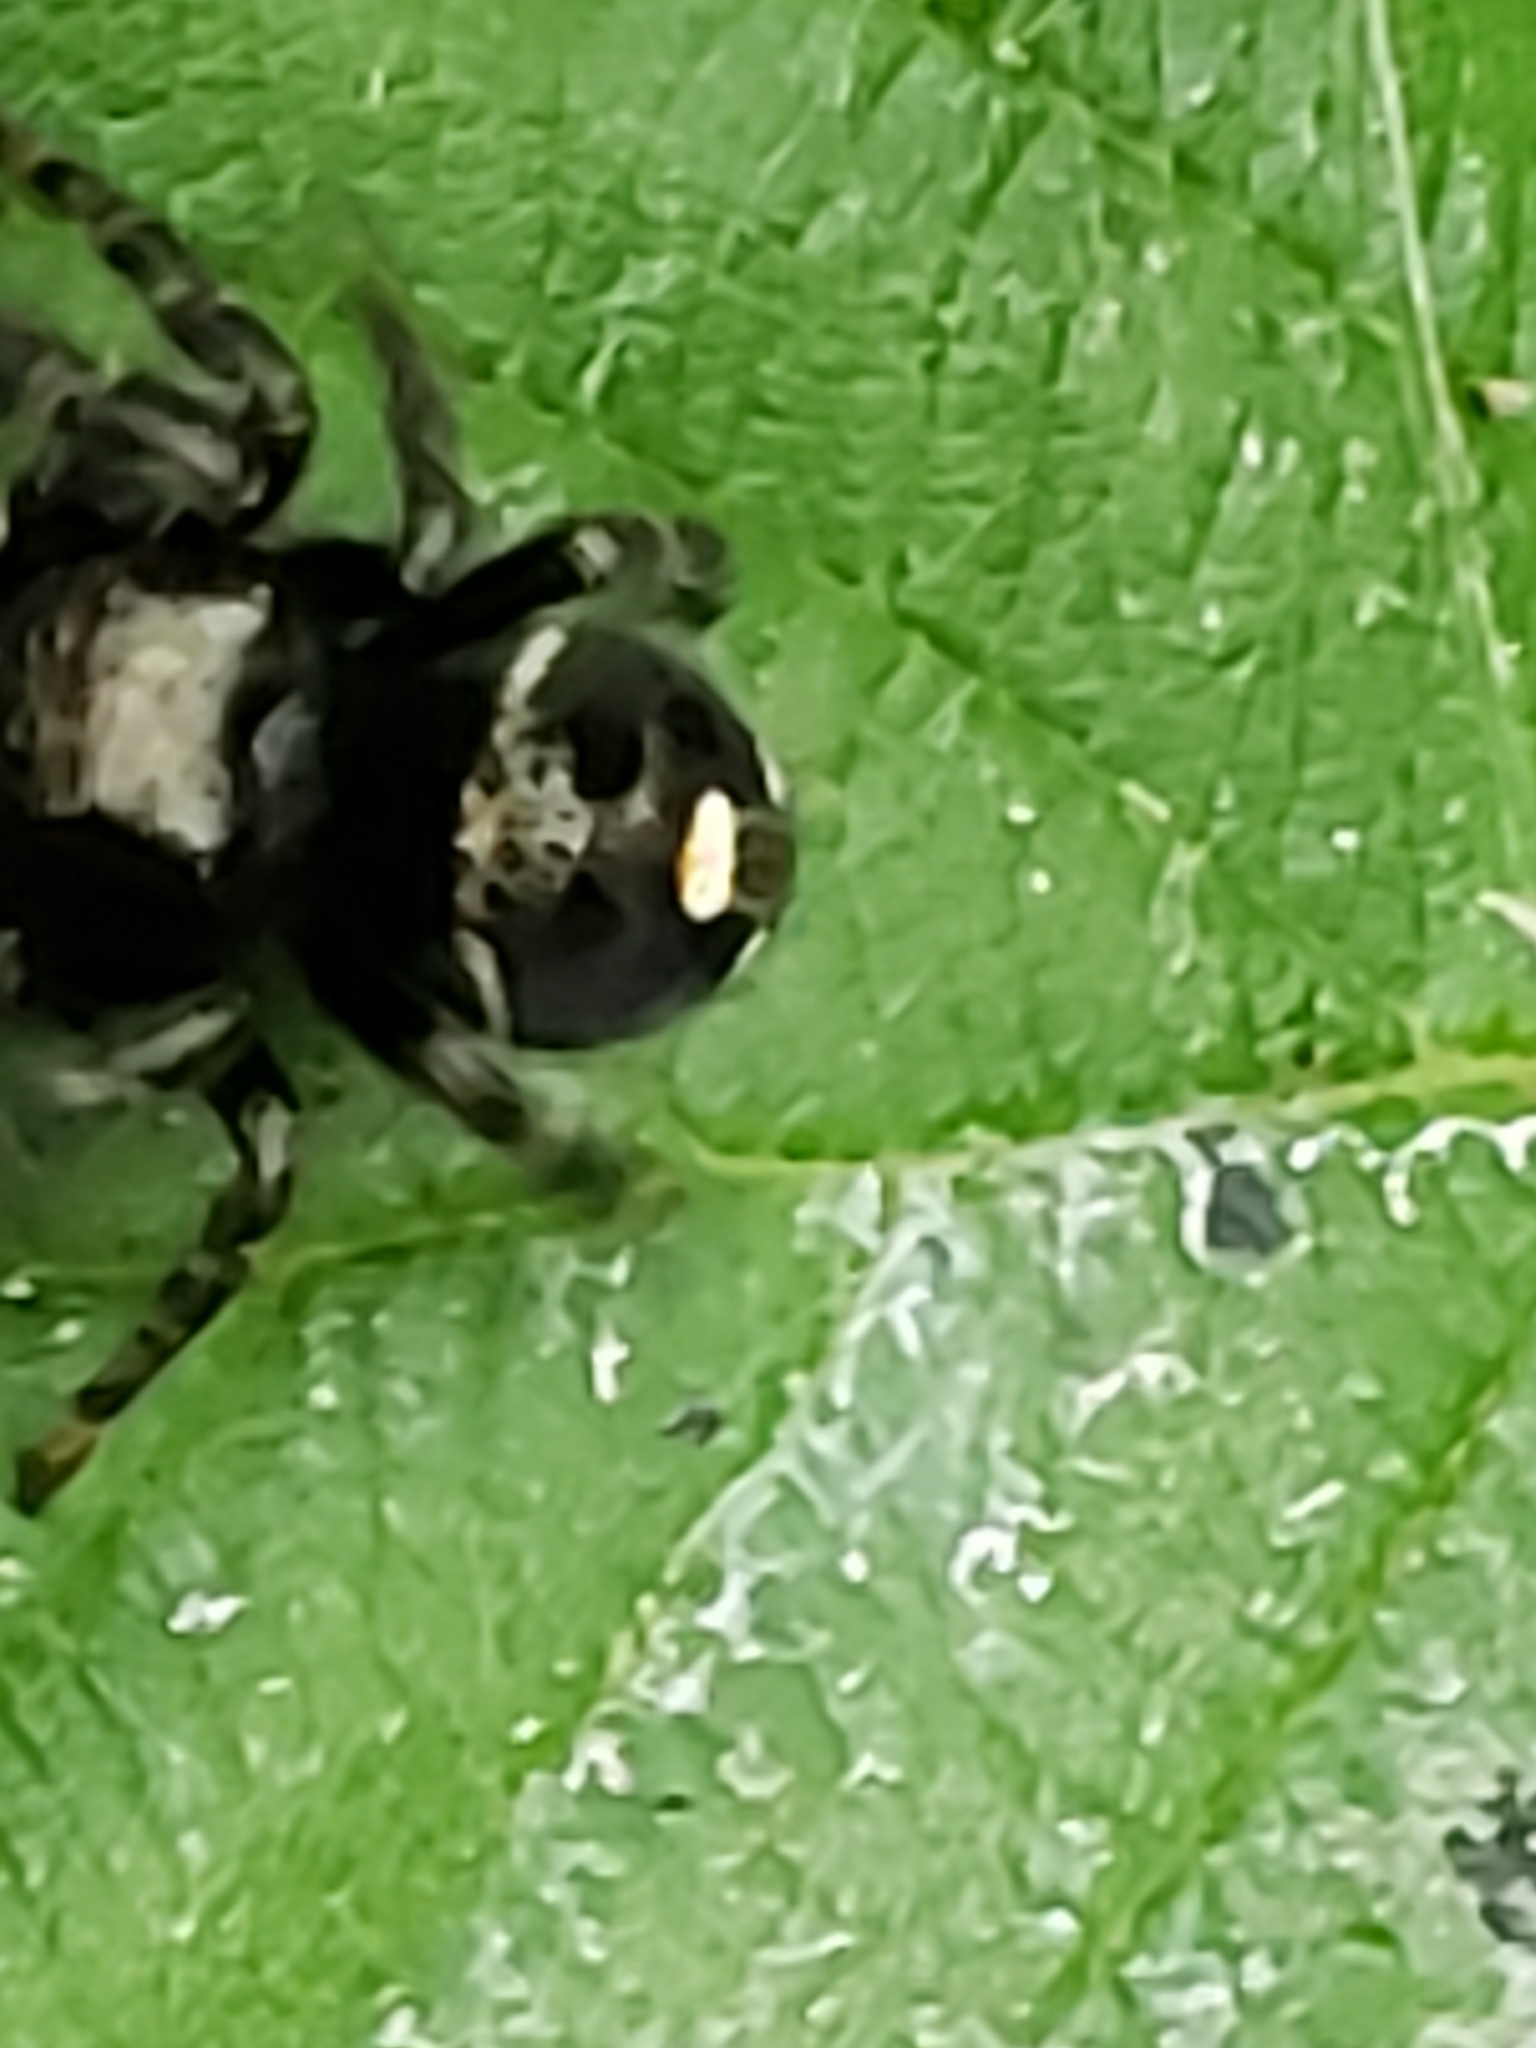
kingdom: Animalia
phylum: Arthropoda
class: Arachnida
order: Araneae
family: Salticidae
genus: Phidippus
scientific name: Phidippus audax
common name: Bold jumper
